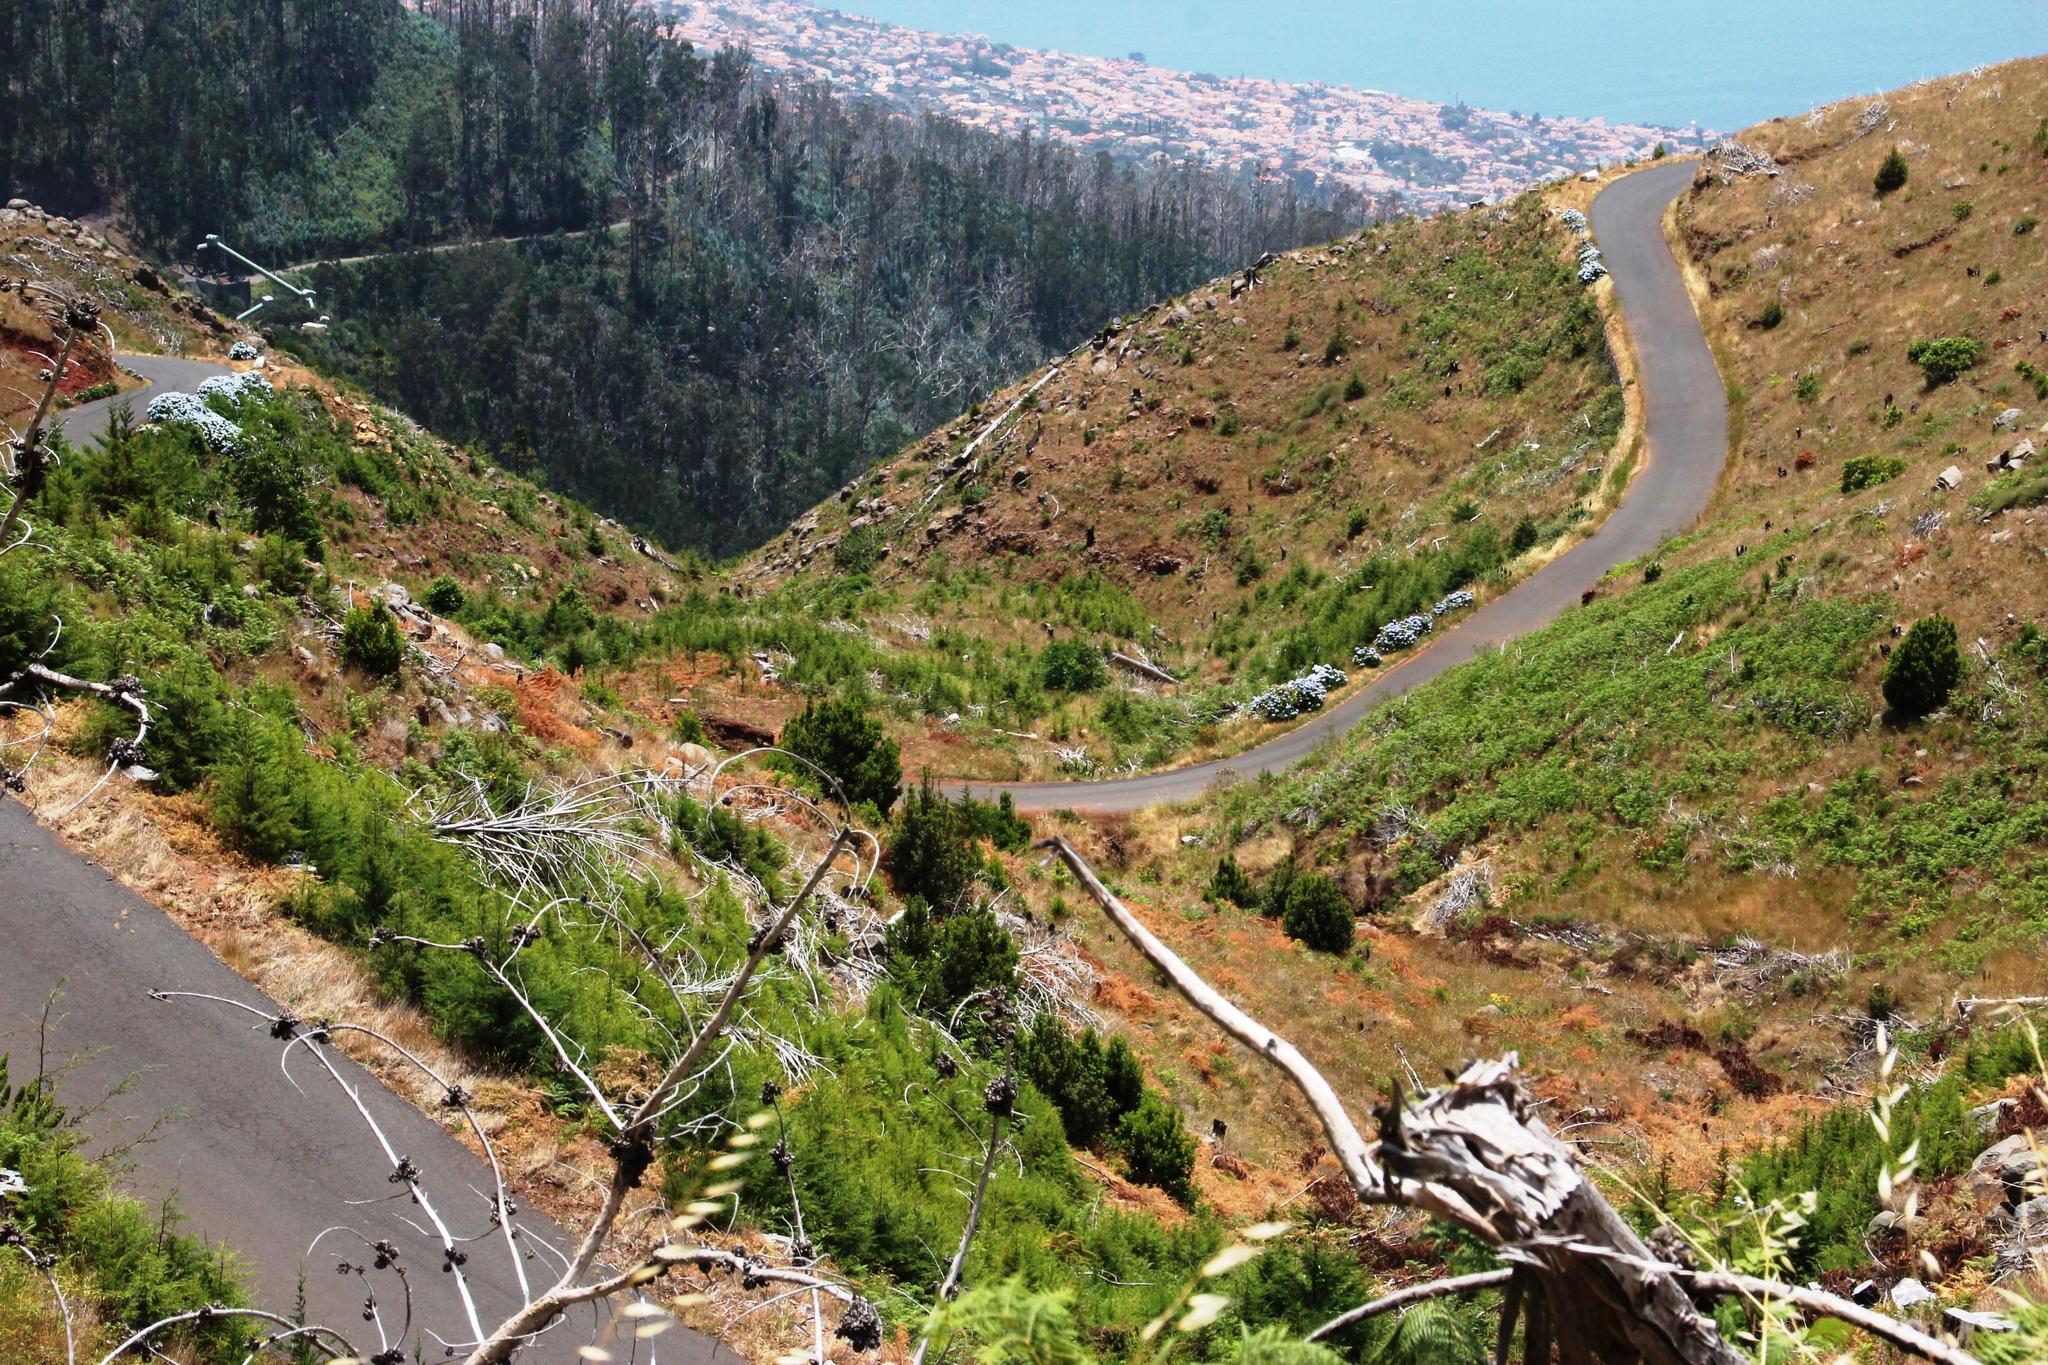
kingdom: Plantae
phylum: Tracheophyta
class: Magnoliopsida
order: Cornales
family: Hydrangeaceae
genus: Hydrangea
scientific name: Hydrangea macrophylla
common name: Hydrangea
